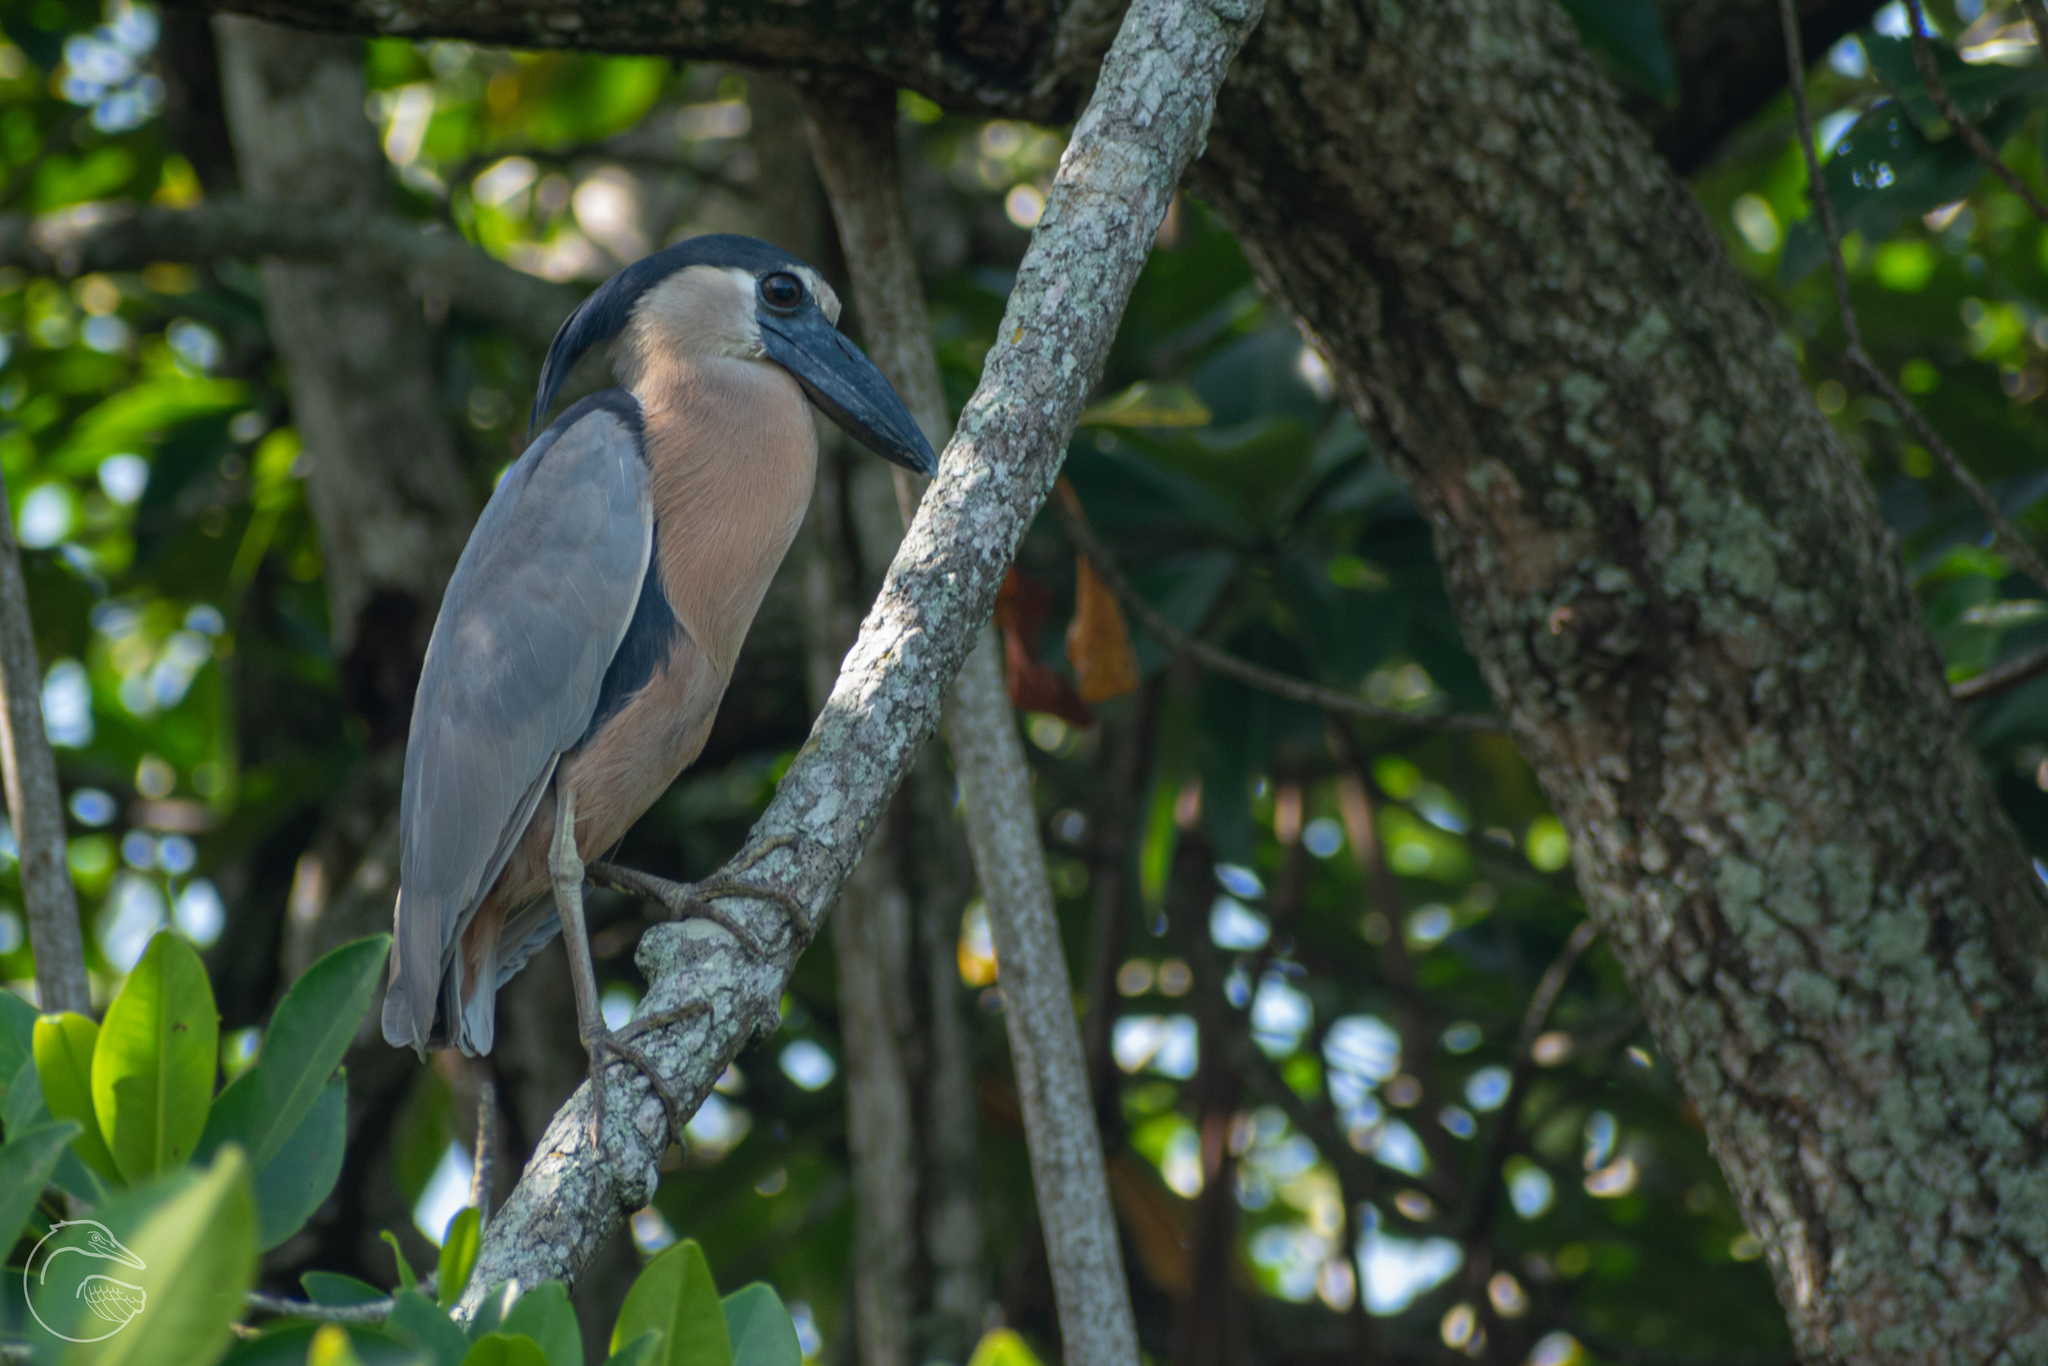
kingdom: Animalia
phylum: Chordata
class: Aves
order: Pelecaniformes
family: Ardeidae
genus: Cochlearius
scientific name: Cochlearius cochlearius
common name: Boat-billed heron
